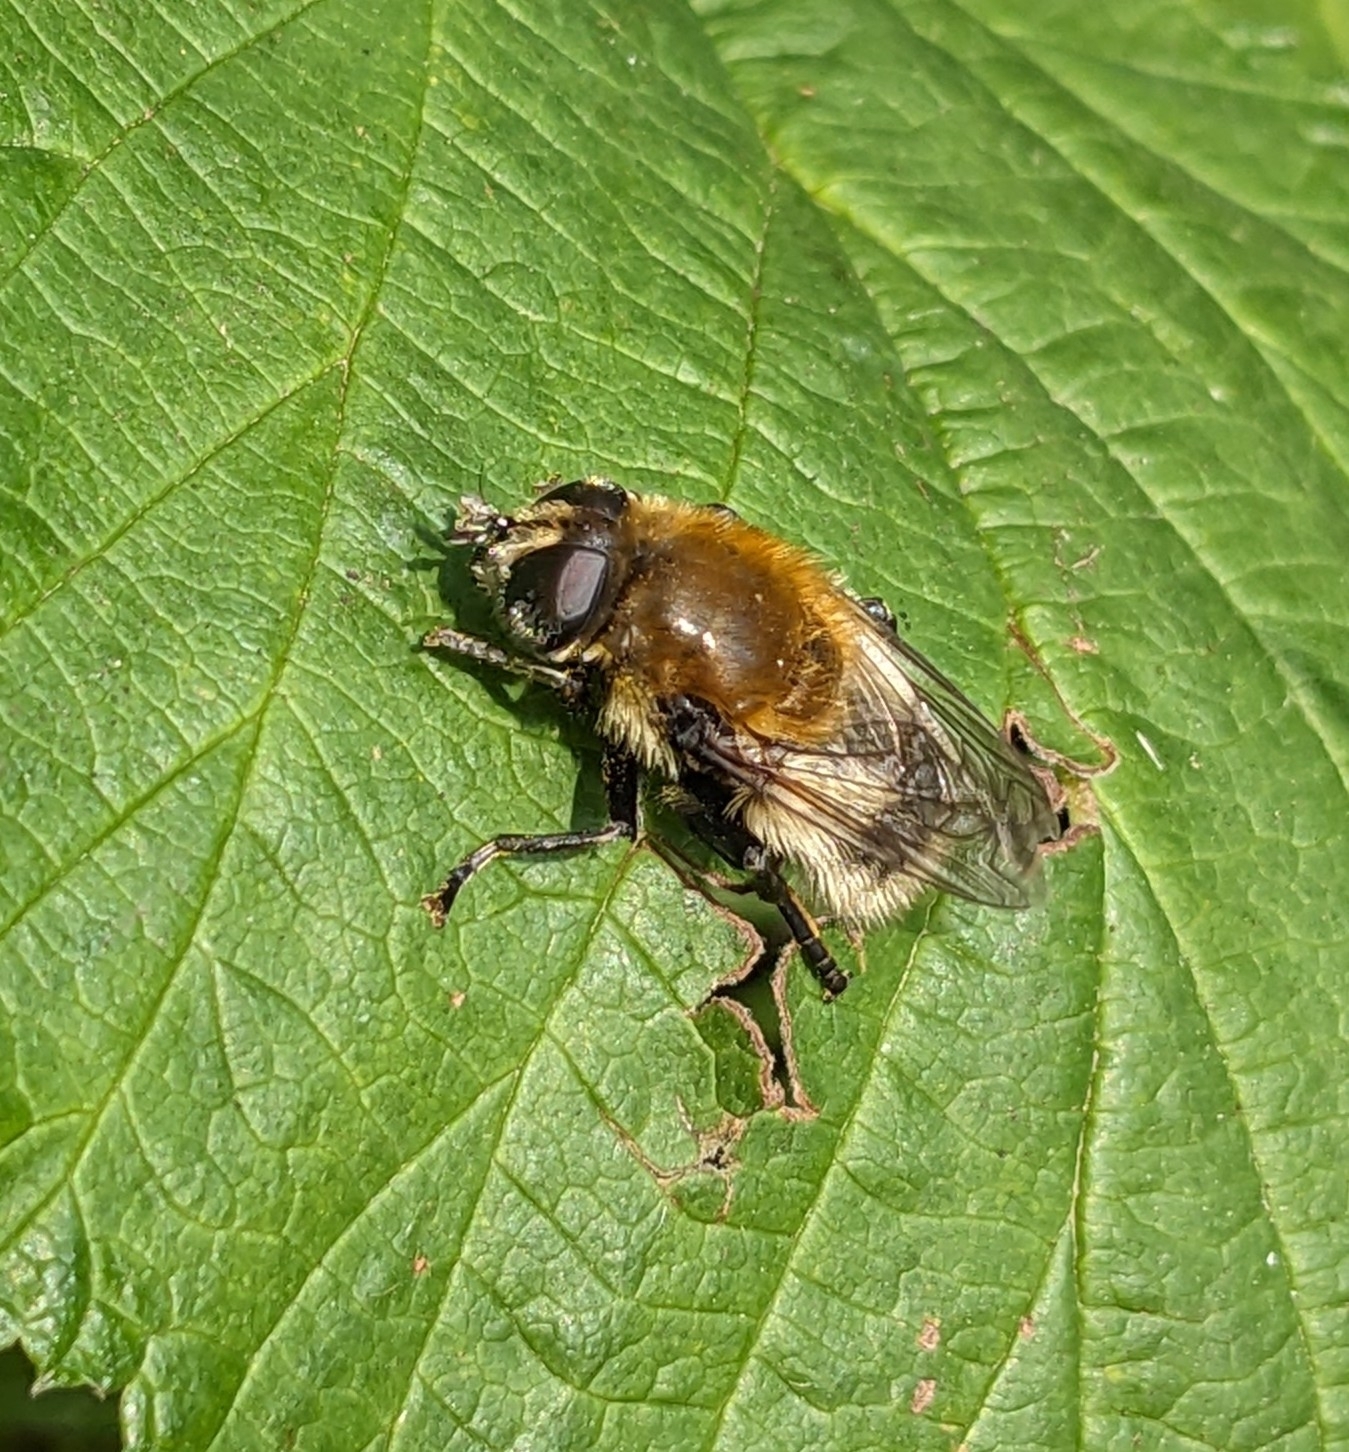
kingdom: Animalia
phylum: Arthropoda
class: Insecta
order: Diptera
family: Syrphidae
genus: Merodon
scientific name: Merodon equestris
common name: Greater bulb-fly
